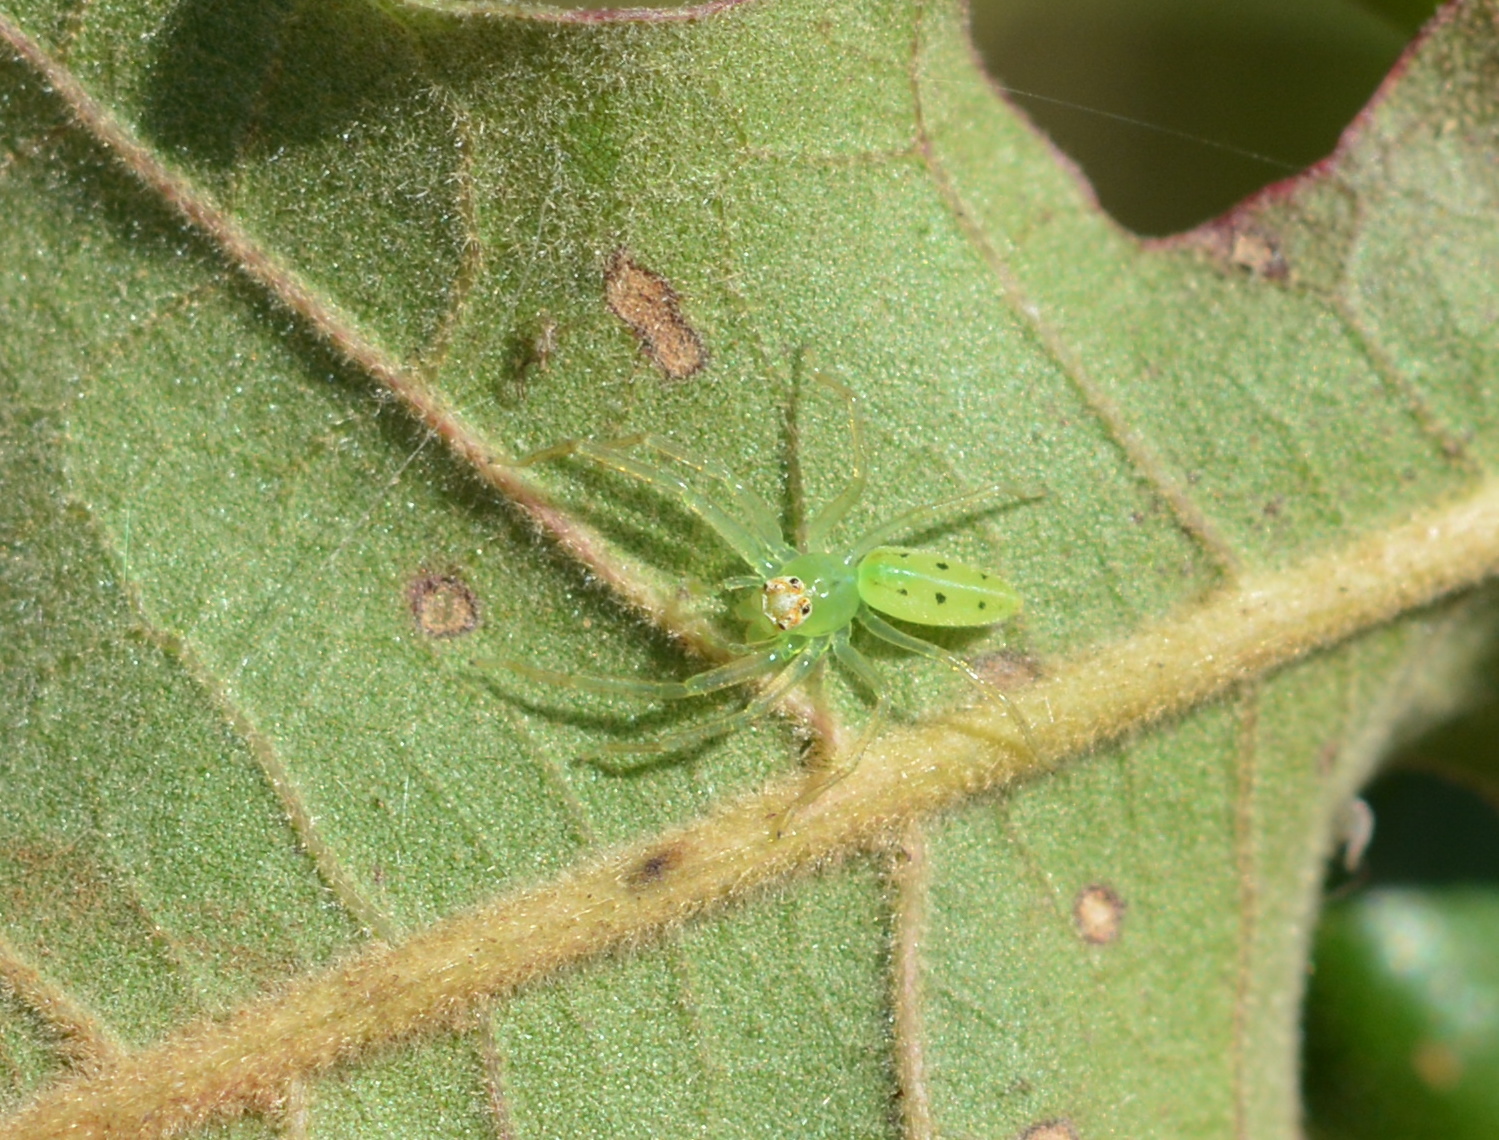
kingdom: Animalia
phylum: Arthropoda
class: Arachnida
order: Araneae
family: Salticidae
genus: Lyssomanes
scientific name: Lyssomanes viridis
